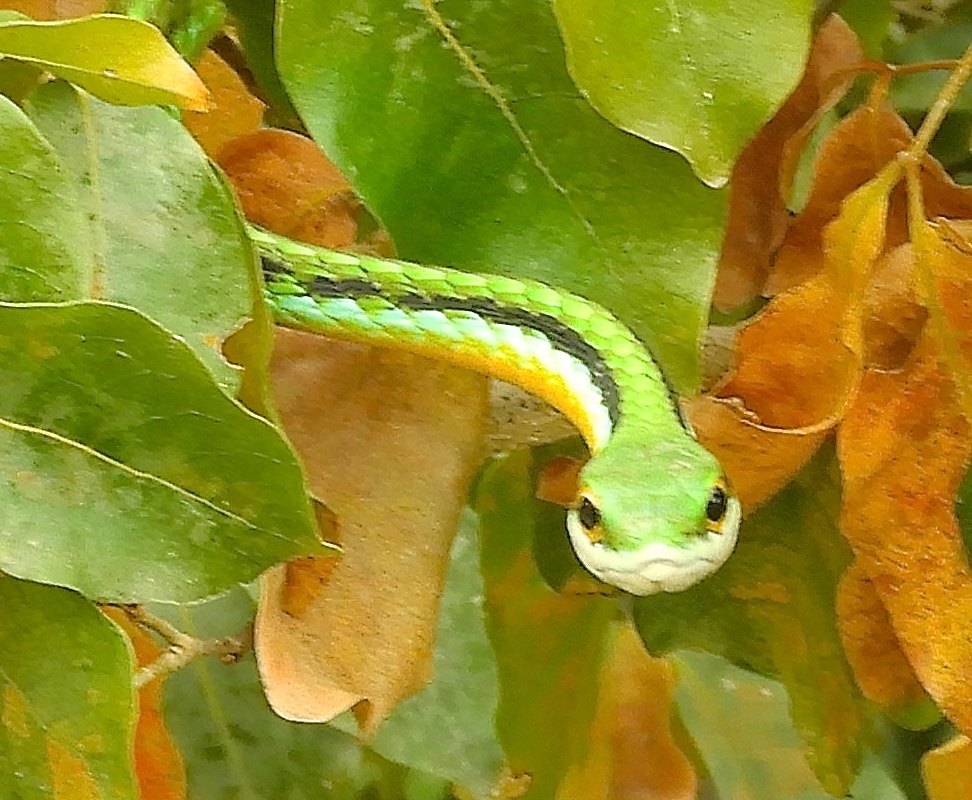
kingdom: Animalia
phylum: Chordata
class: Squamata
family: Colubridae
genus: Leptophis
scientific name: Leptophis diplotropis
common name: Pacific coast parrot snake
